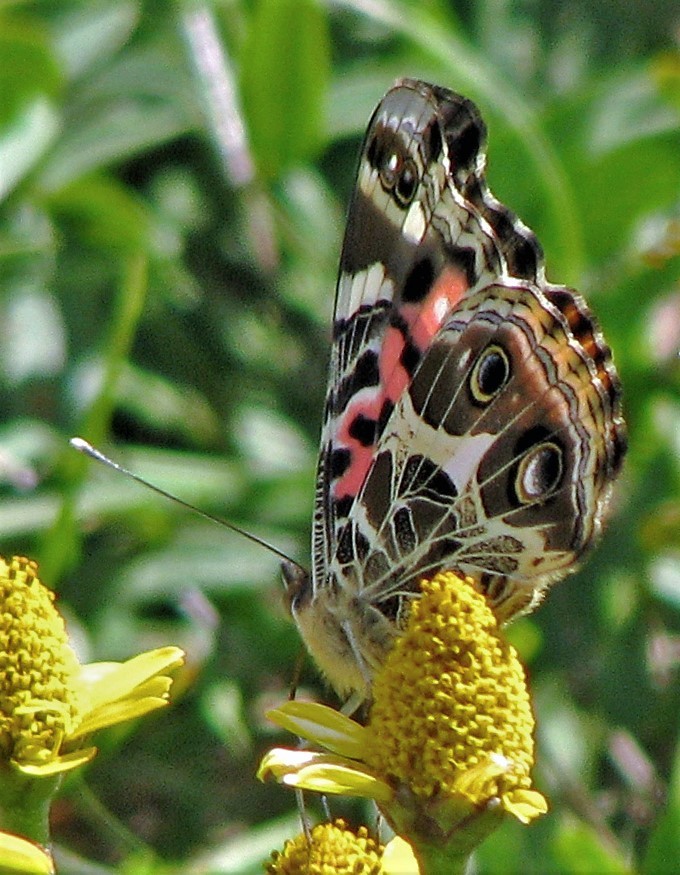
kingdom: Animalia
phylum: Arthropoda
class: Insecta
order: Lepidoptera
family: Nymphalidae
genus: Vanessa
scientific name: Vanessa braziliensis
